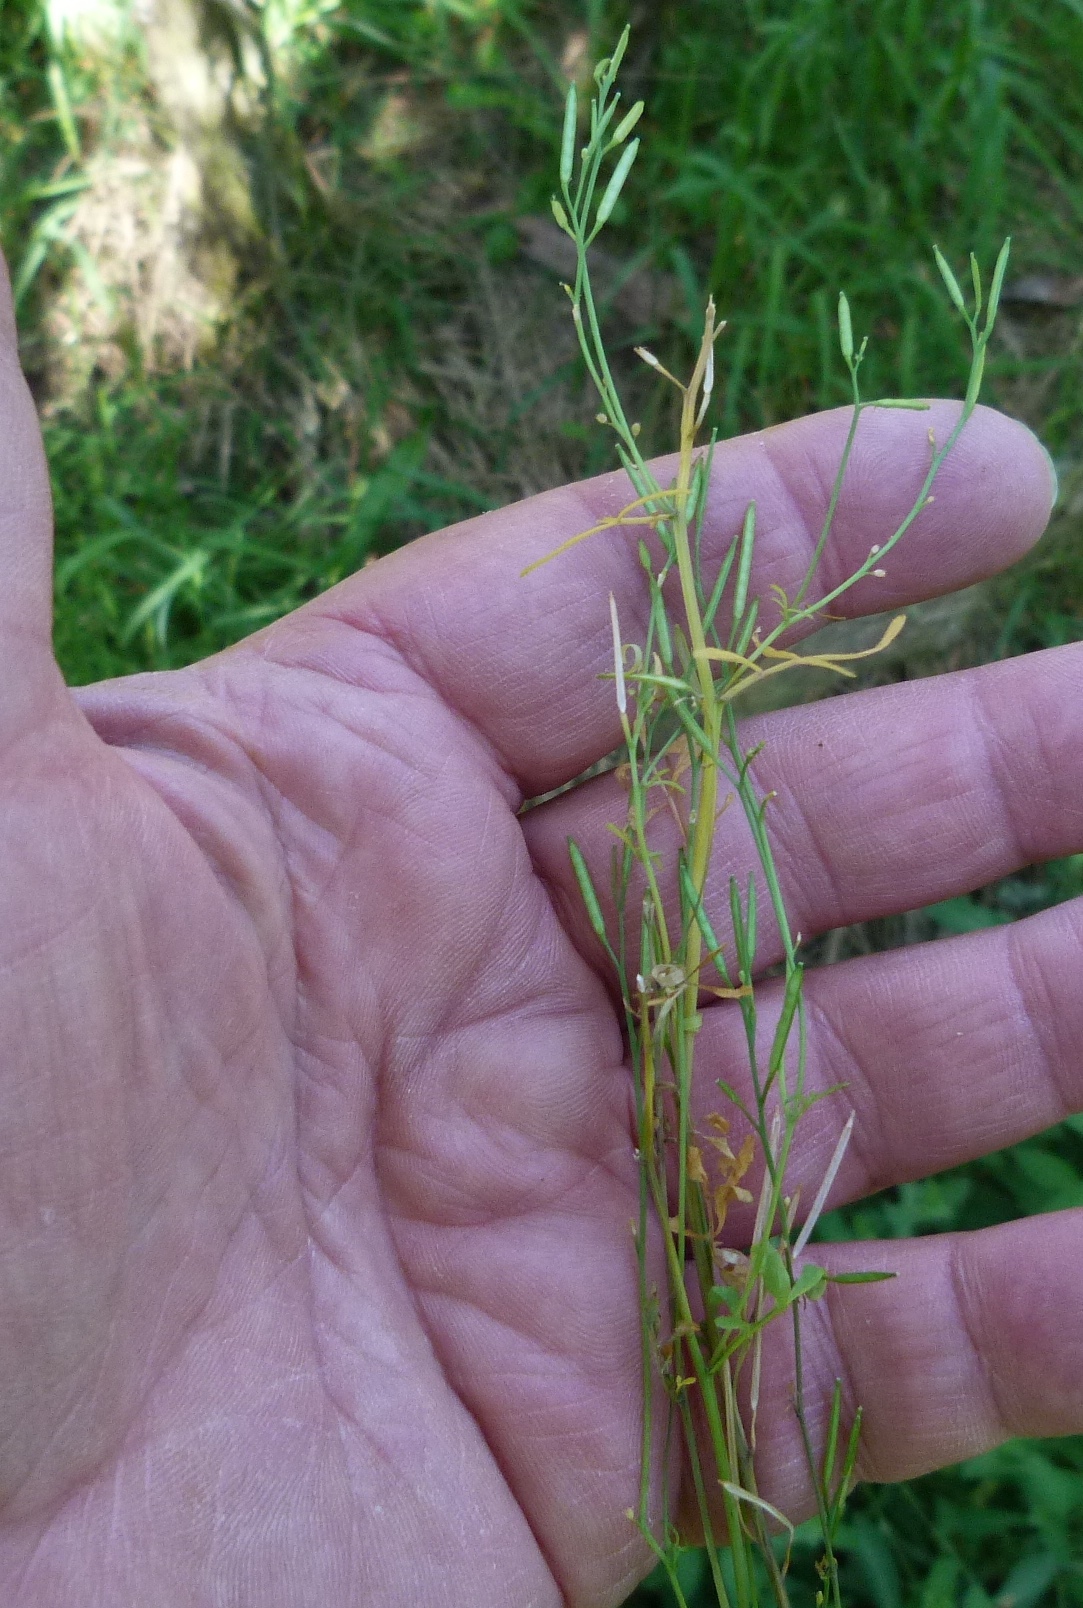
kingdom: Plantae
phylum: Tracheophyta
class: Magnoliopsida
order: Brassicales
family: Brassicaceae
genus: Cardamine
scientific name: Cardamine hirsuta
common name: Hairy bittercress
